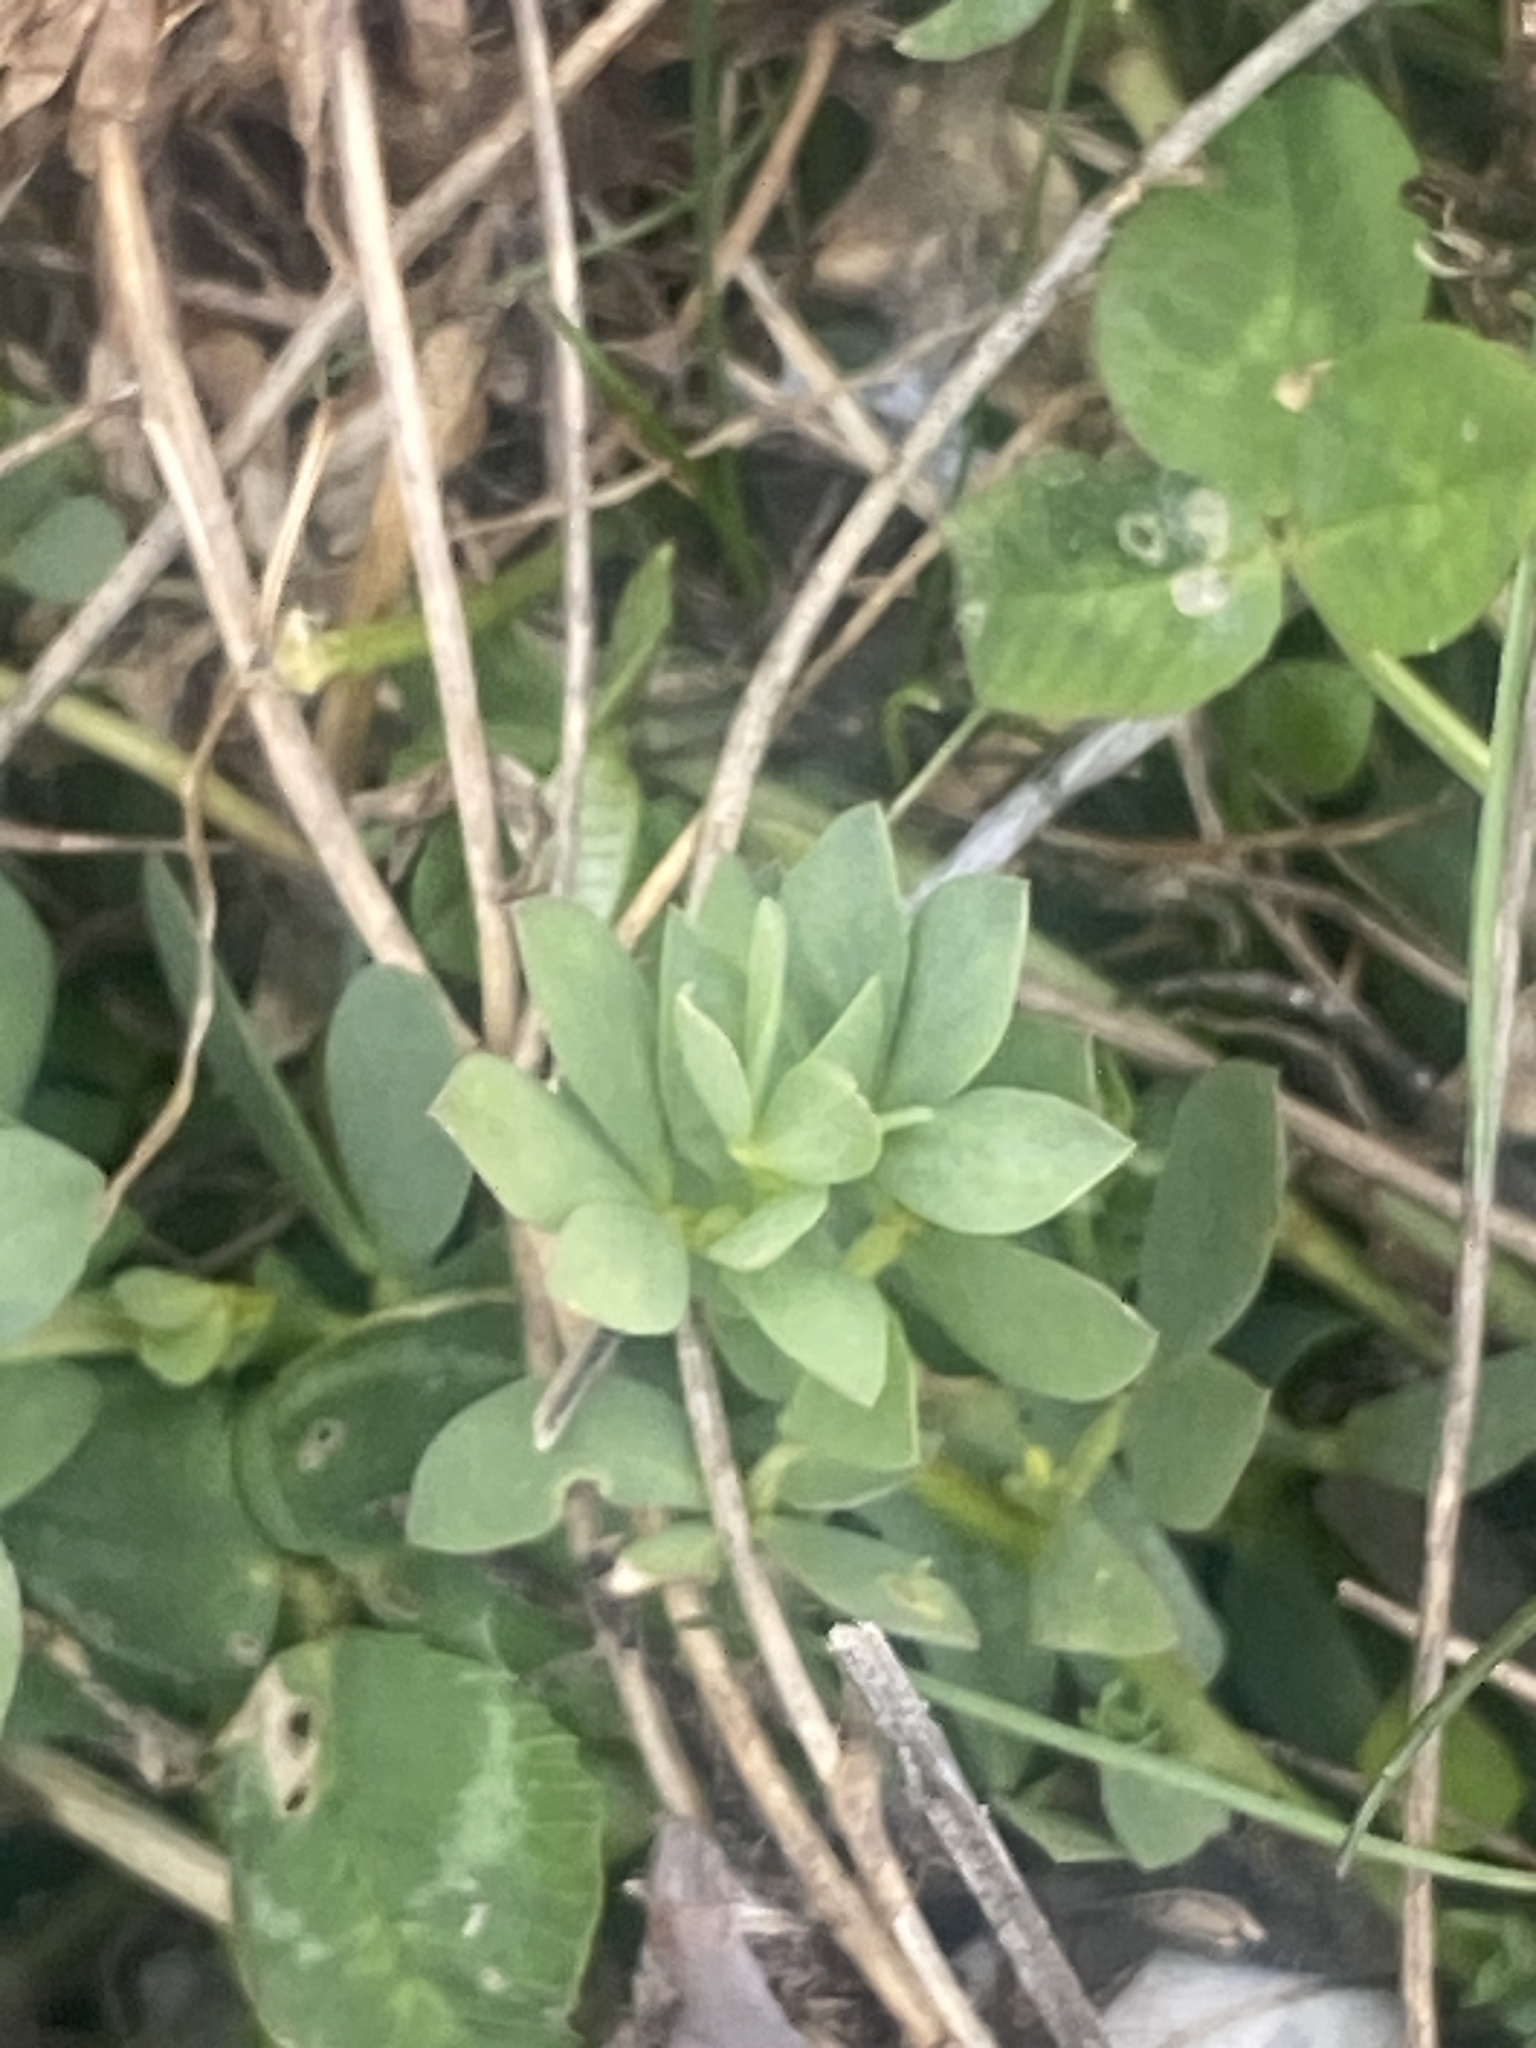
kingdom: Plantae
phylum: Tracheophyta
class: Magnoliopsida
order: Fabales
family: Fabaceae
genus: Lotus
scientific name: Lotus corniculatus
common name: Common bird's-foot-trefoil
